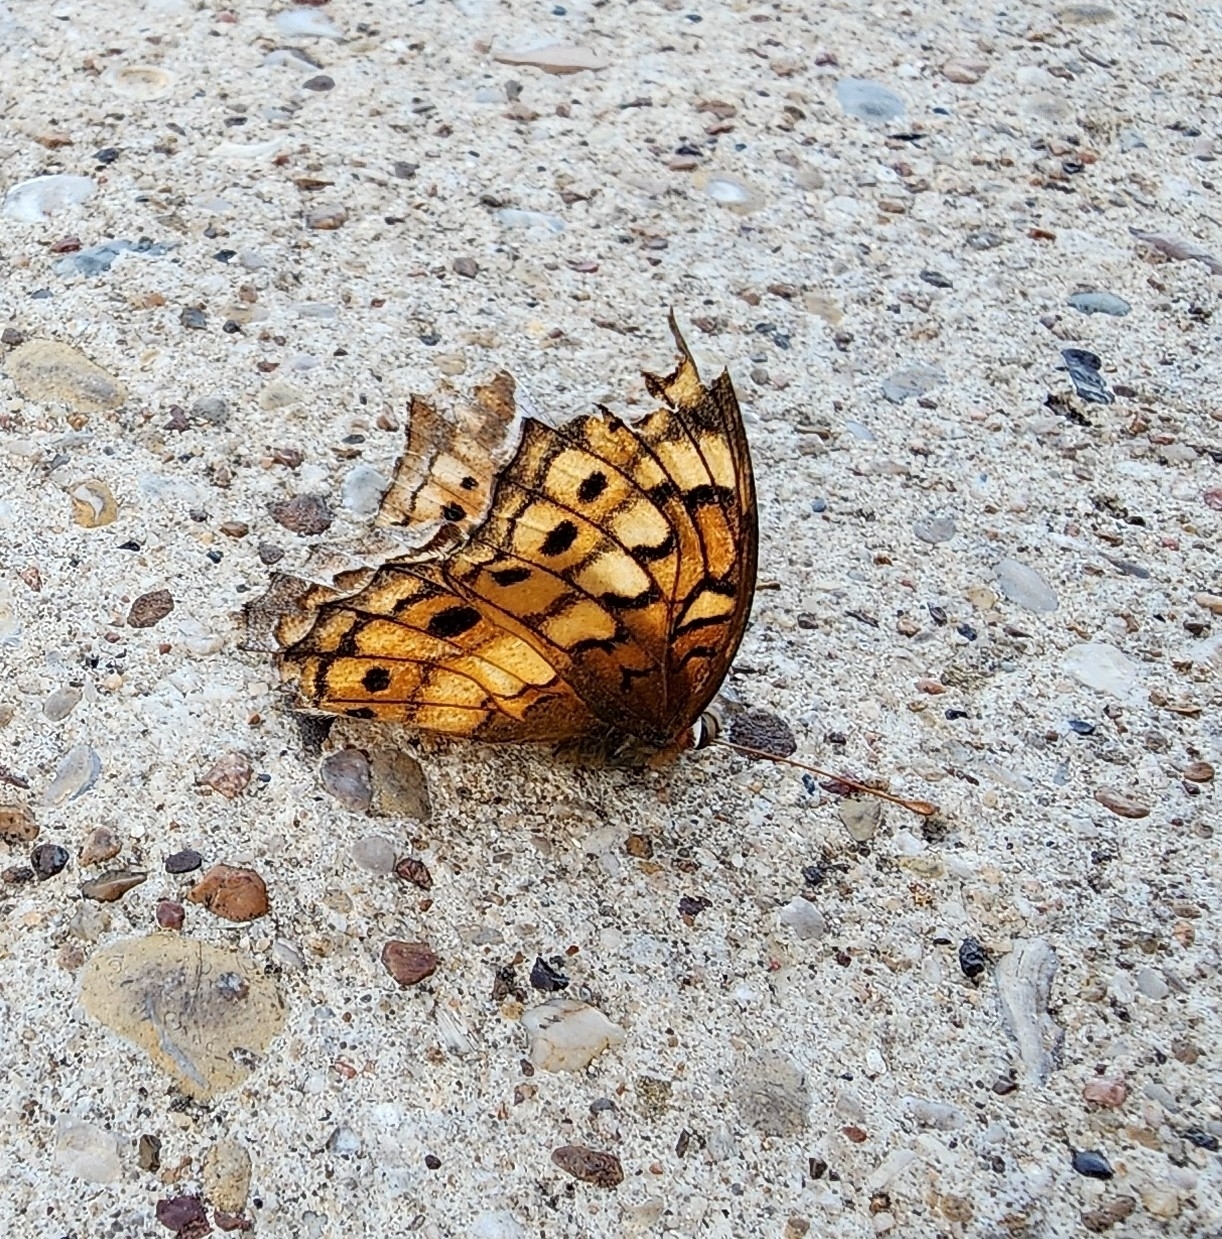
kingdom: Animalia
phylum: Arthropoda
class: Insecta
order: Lepidoptera
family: Nymphalidae
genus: Euptoieta
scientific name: Euptoieta claudia
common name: Variegated fritillary
